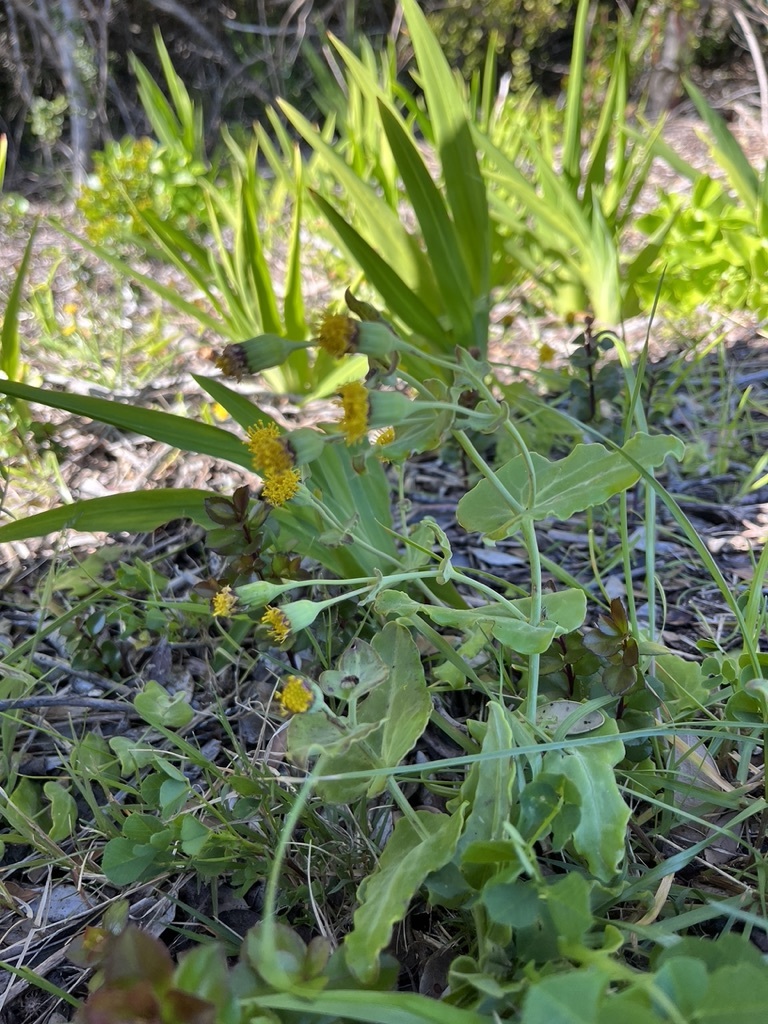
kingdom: Plantae
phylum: Tracheophyta
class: Magnoliopsida
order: Asterales
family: Asteraceae
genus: Othonna
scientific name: Othonna undulosa
